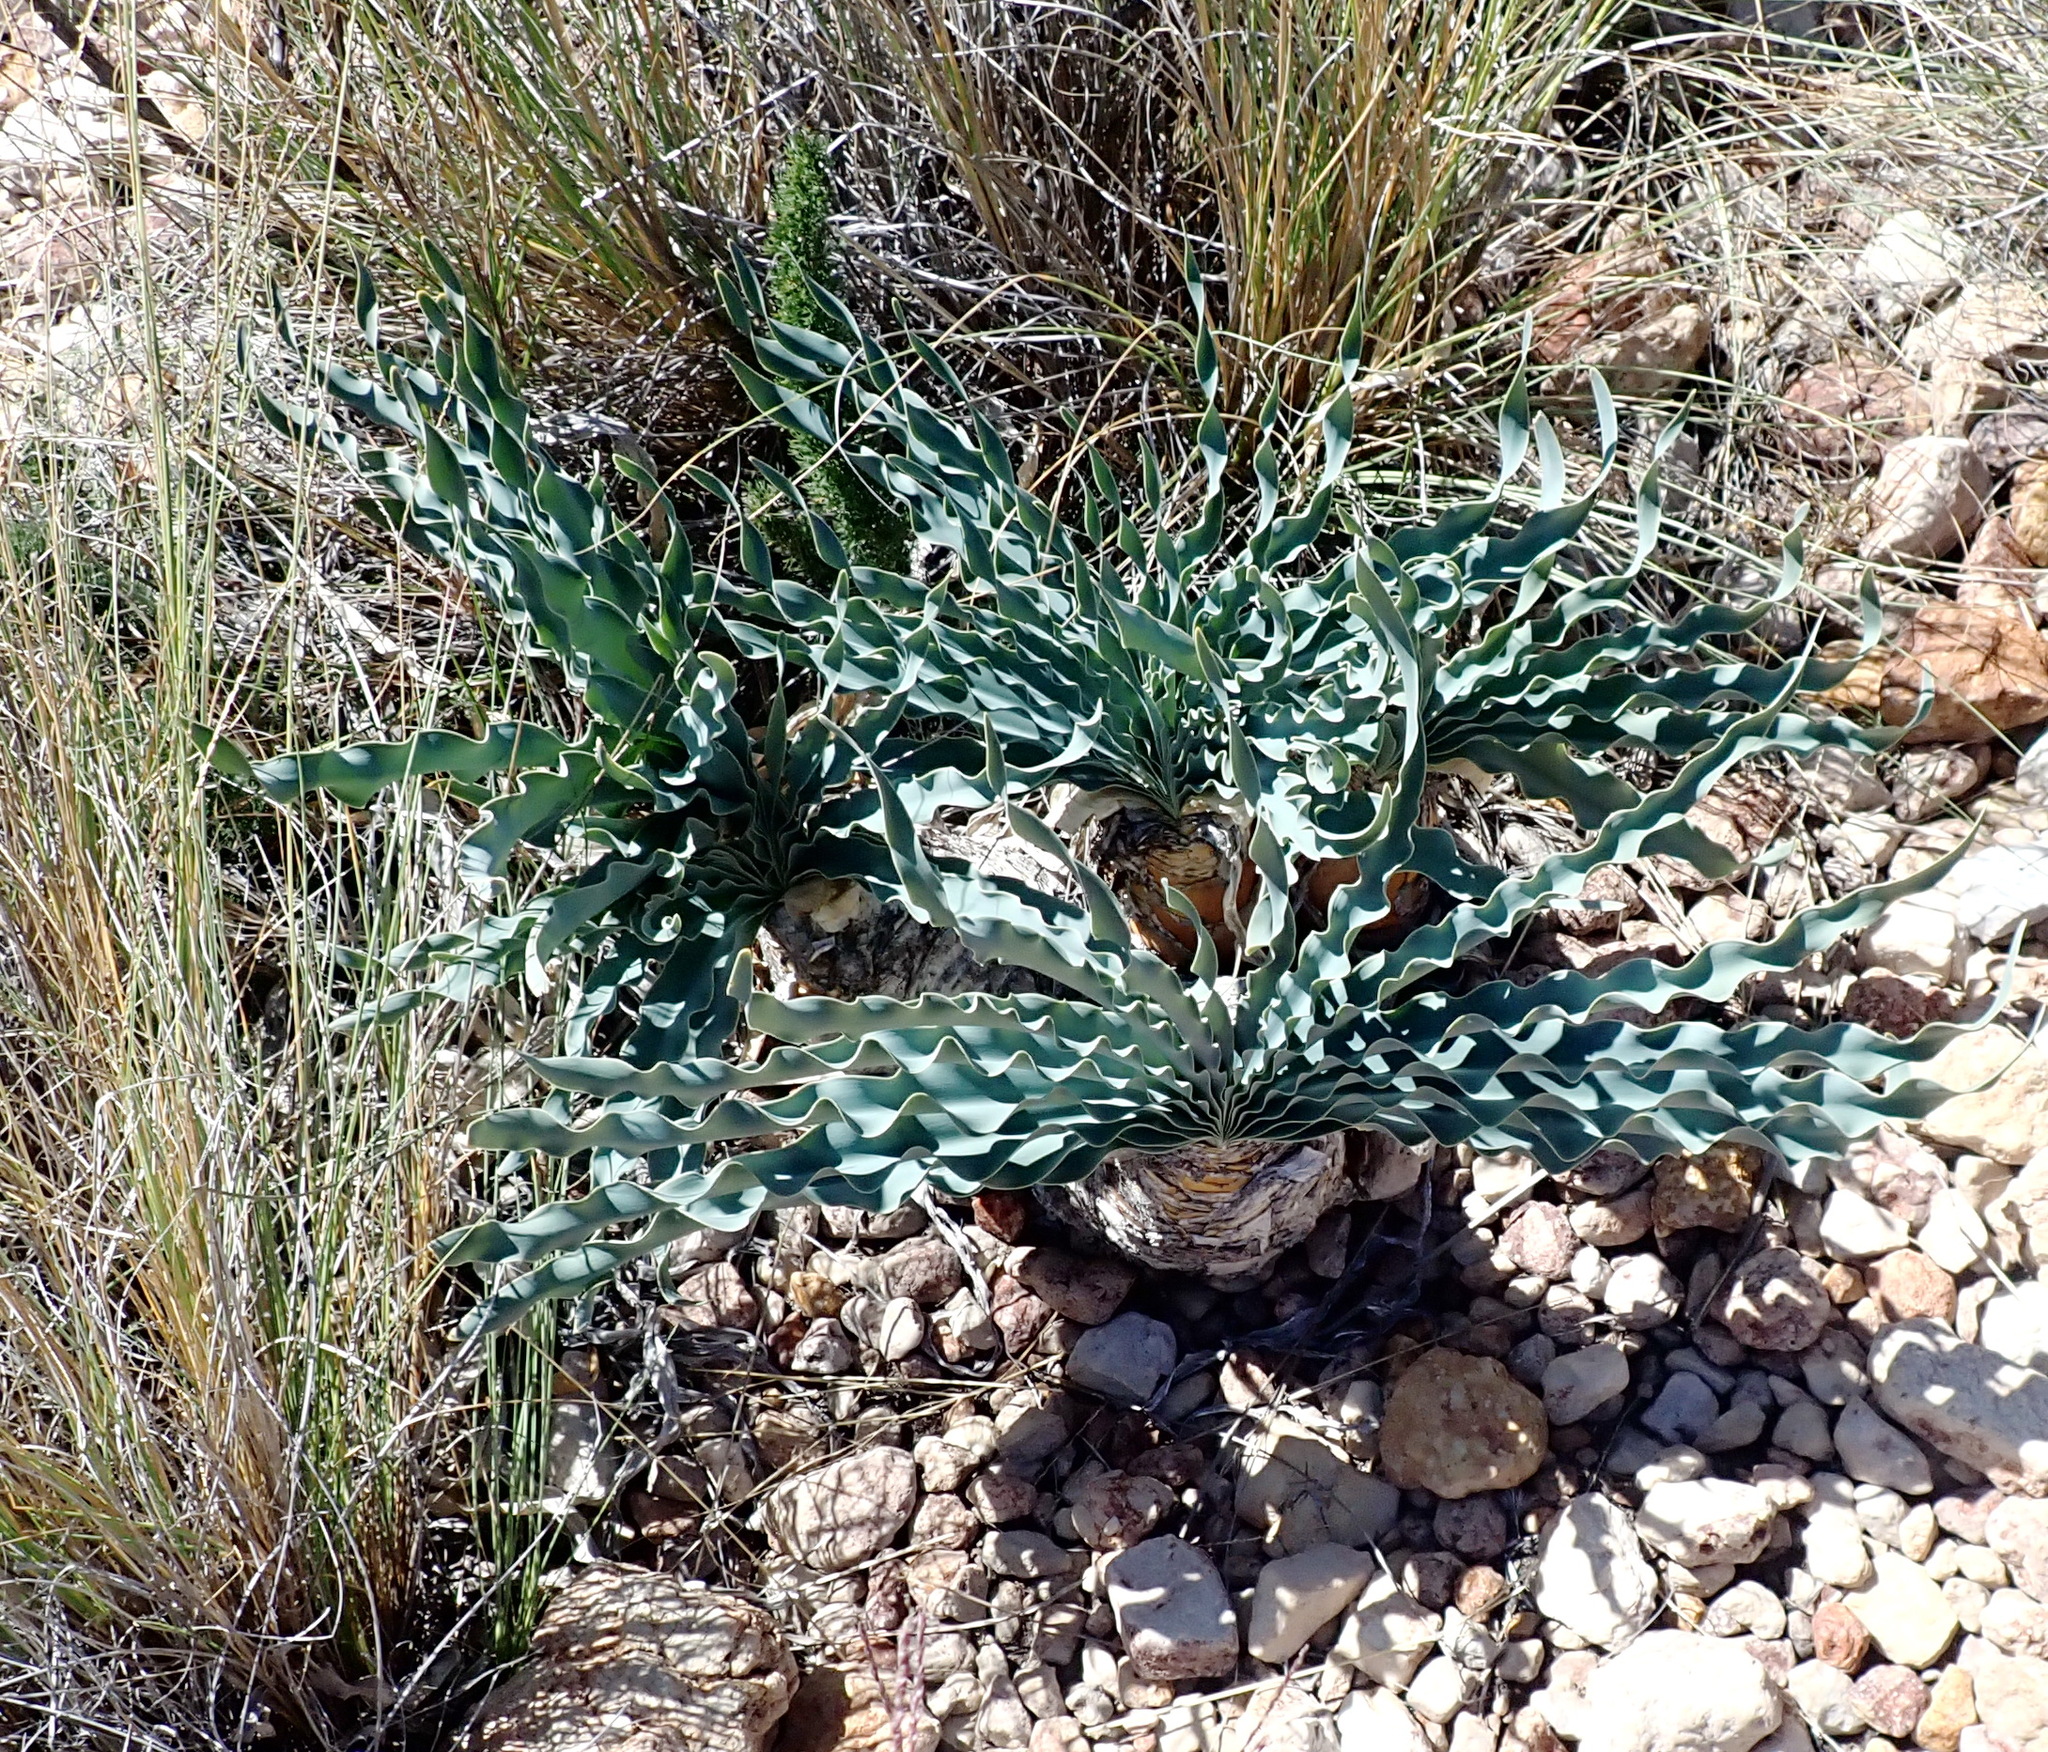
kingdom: Plantae
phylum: Tracheophyta
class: Liliopsida
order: Asparagales
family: Amaryllidaceae
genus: Boophone
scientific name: Boophone disticha
